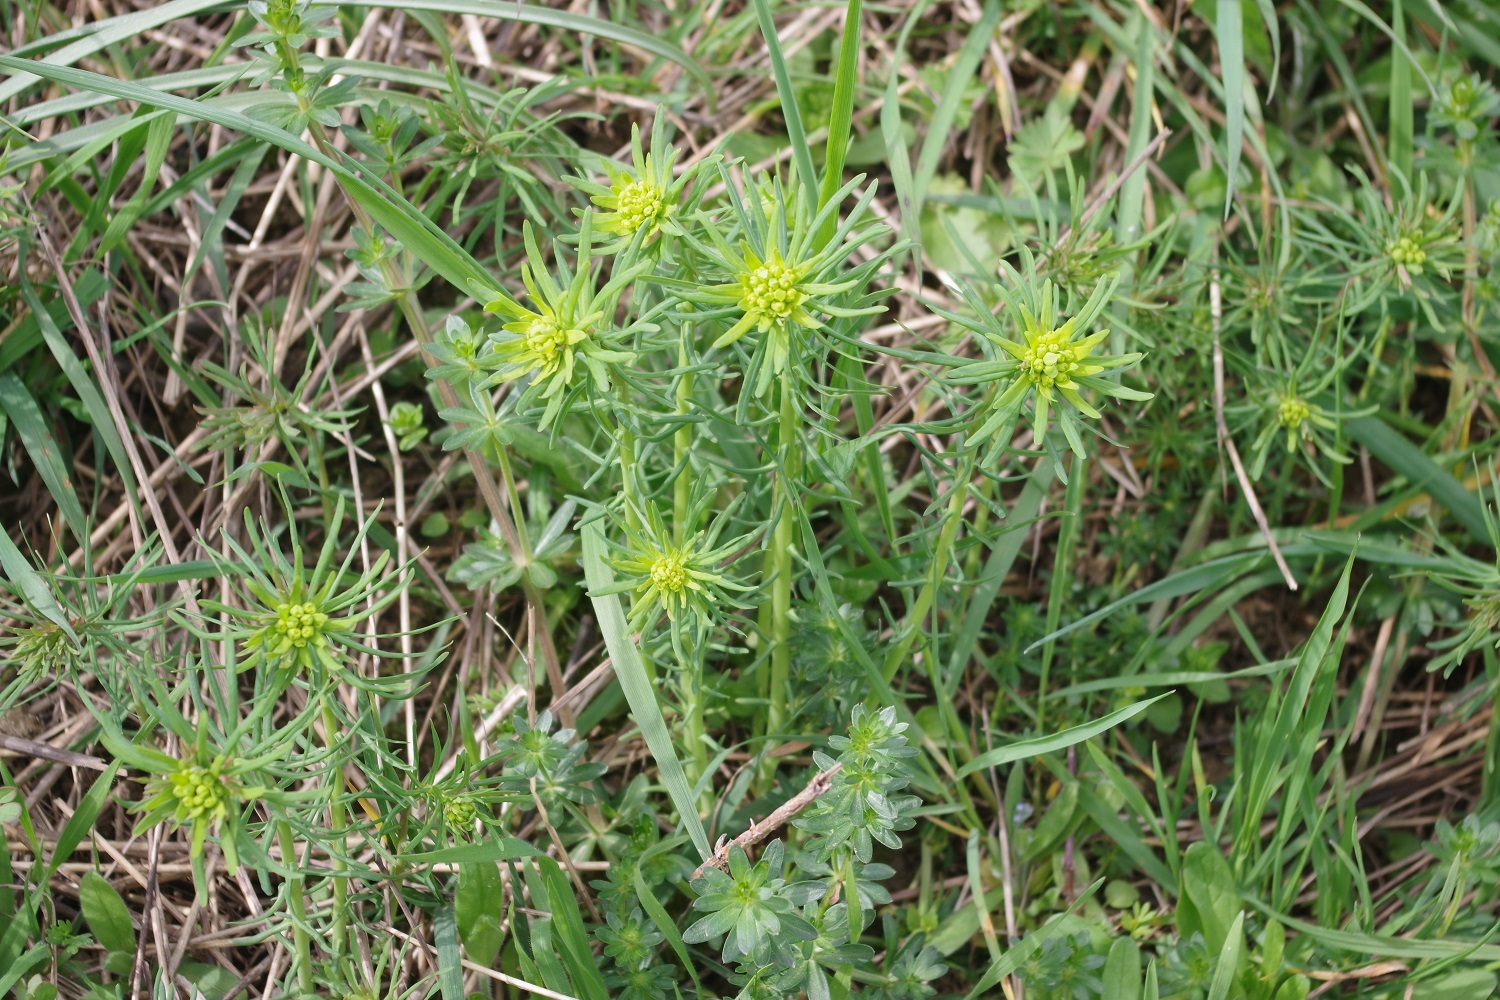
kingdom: Plantae
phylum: Tracheophyta
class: Magnoliopsida
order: Malpighiales
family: Euphorbiaceae
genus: Euphorbia
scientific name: Euphorbia cyparissias
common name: Cypress spurge
